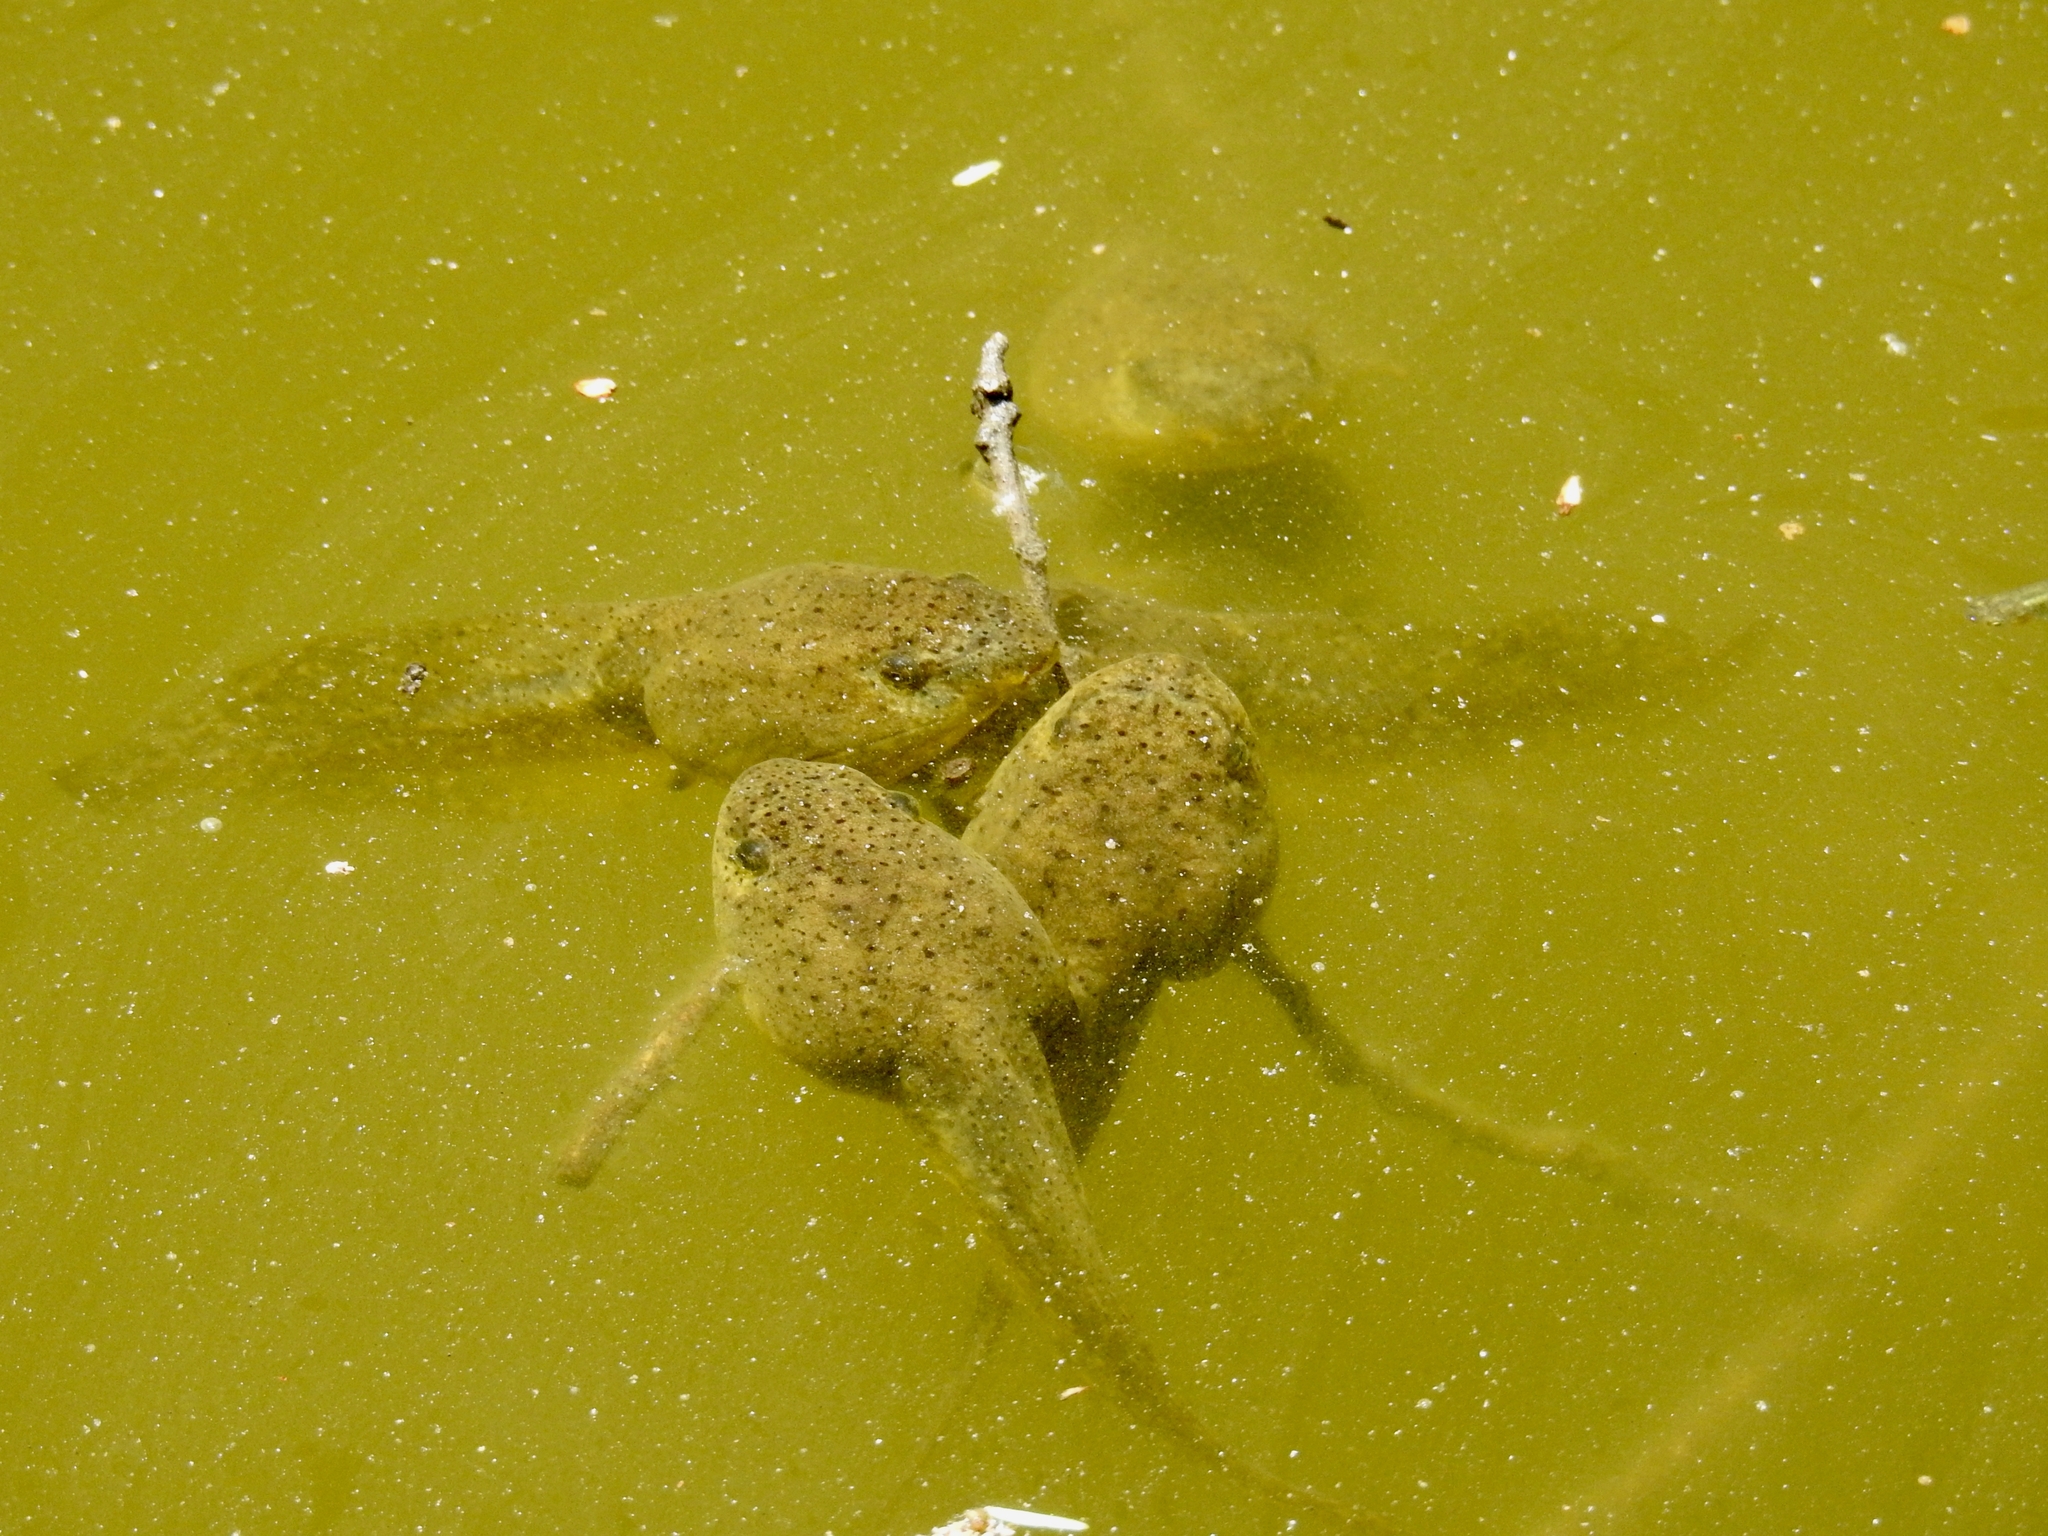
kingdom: Animalia
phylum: Chordata
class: Amphibia
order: Anura
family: Ranidae
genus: Lithobates
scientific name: Lithobates catesbeianus
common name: American bullfrog
